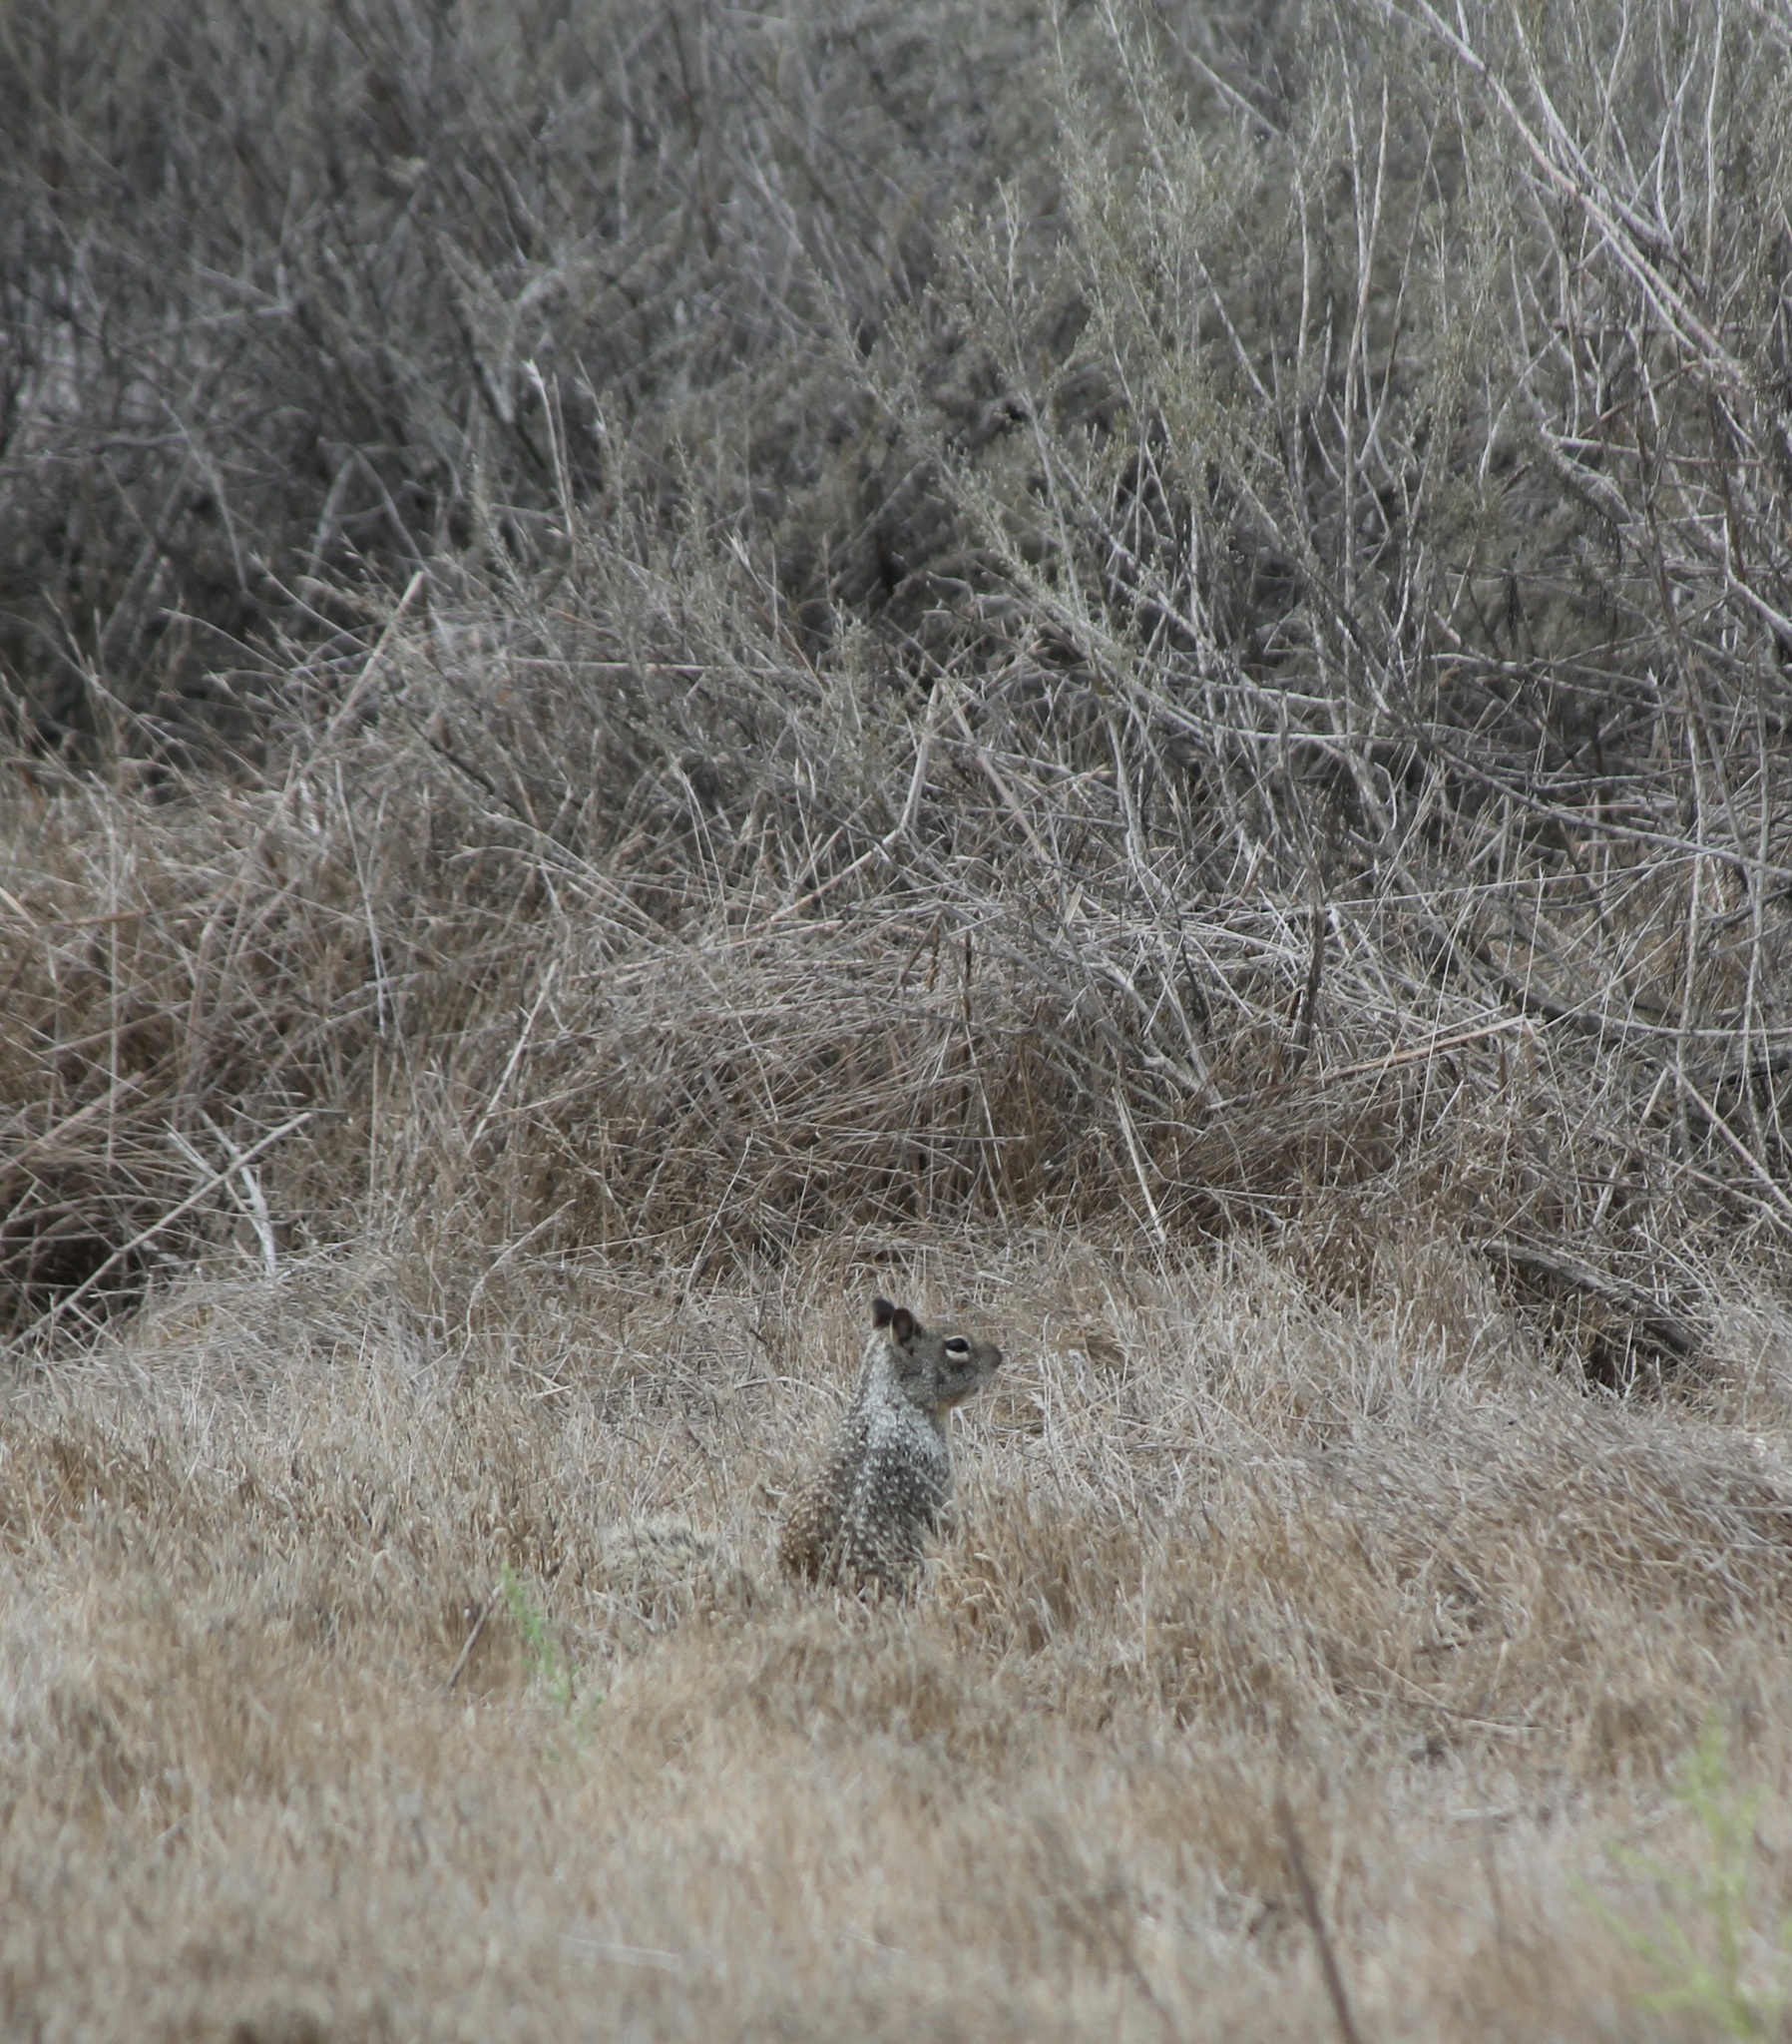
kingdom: Animalia
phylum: Chordata
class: Mammalia
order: Rodentia
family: Sciuridae
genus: Otospermophilus
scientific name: Otospermophilus beecheyi
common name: California ground squirrel
